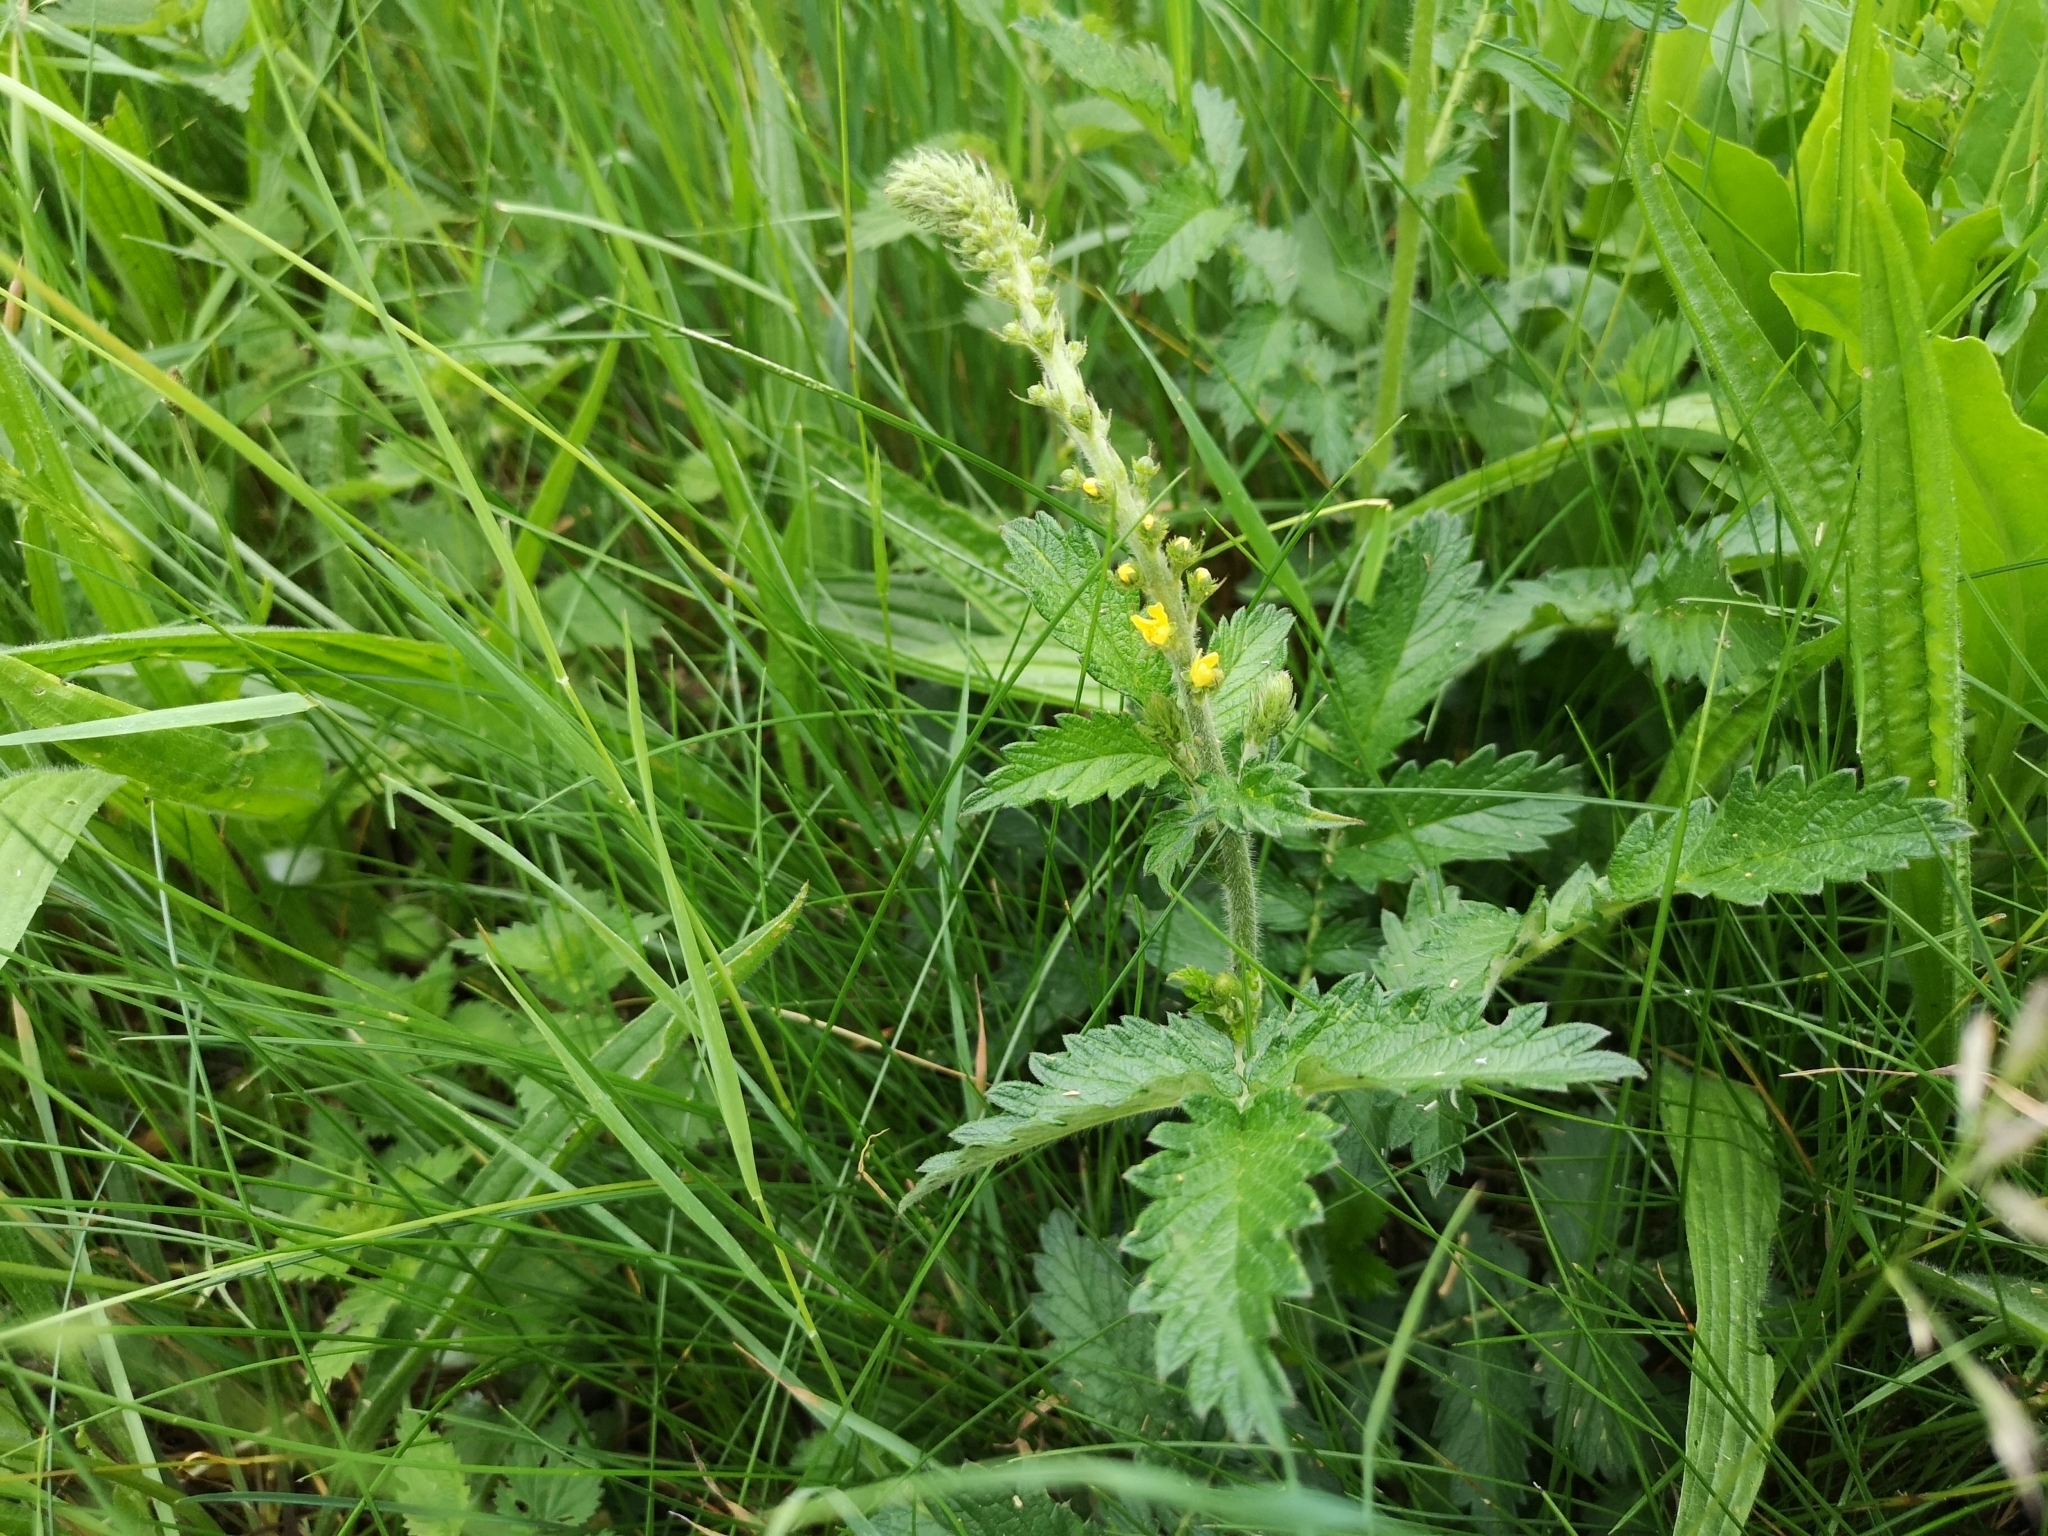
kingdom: Plantae
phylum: Tracheophyta
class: Magnoliopsida
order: Rosales
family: Rosaceae
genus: Agrimonia
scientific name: Agrimonia eupatoria
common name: Agrimony
